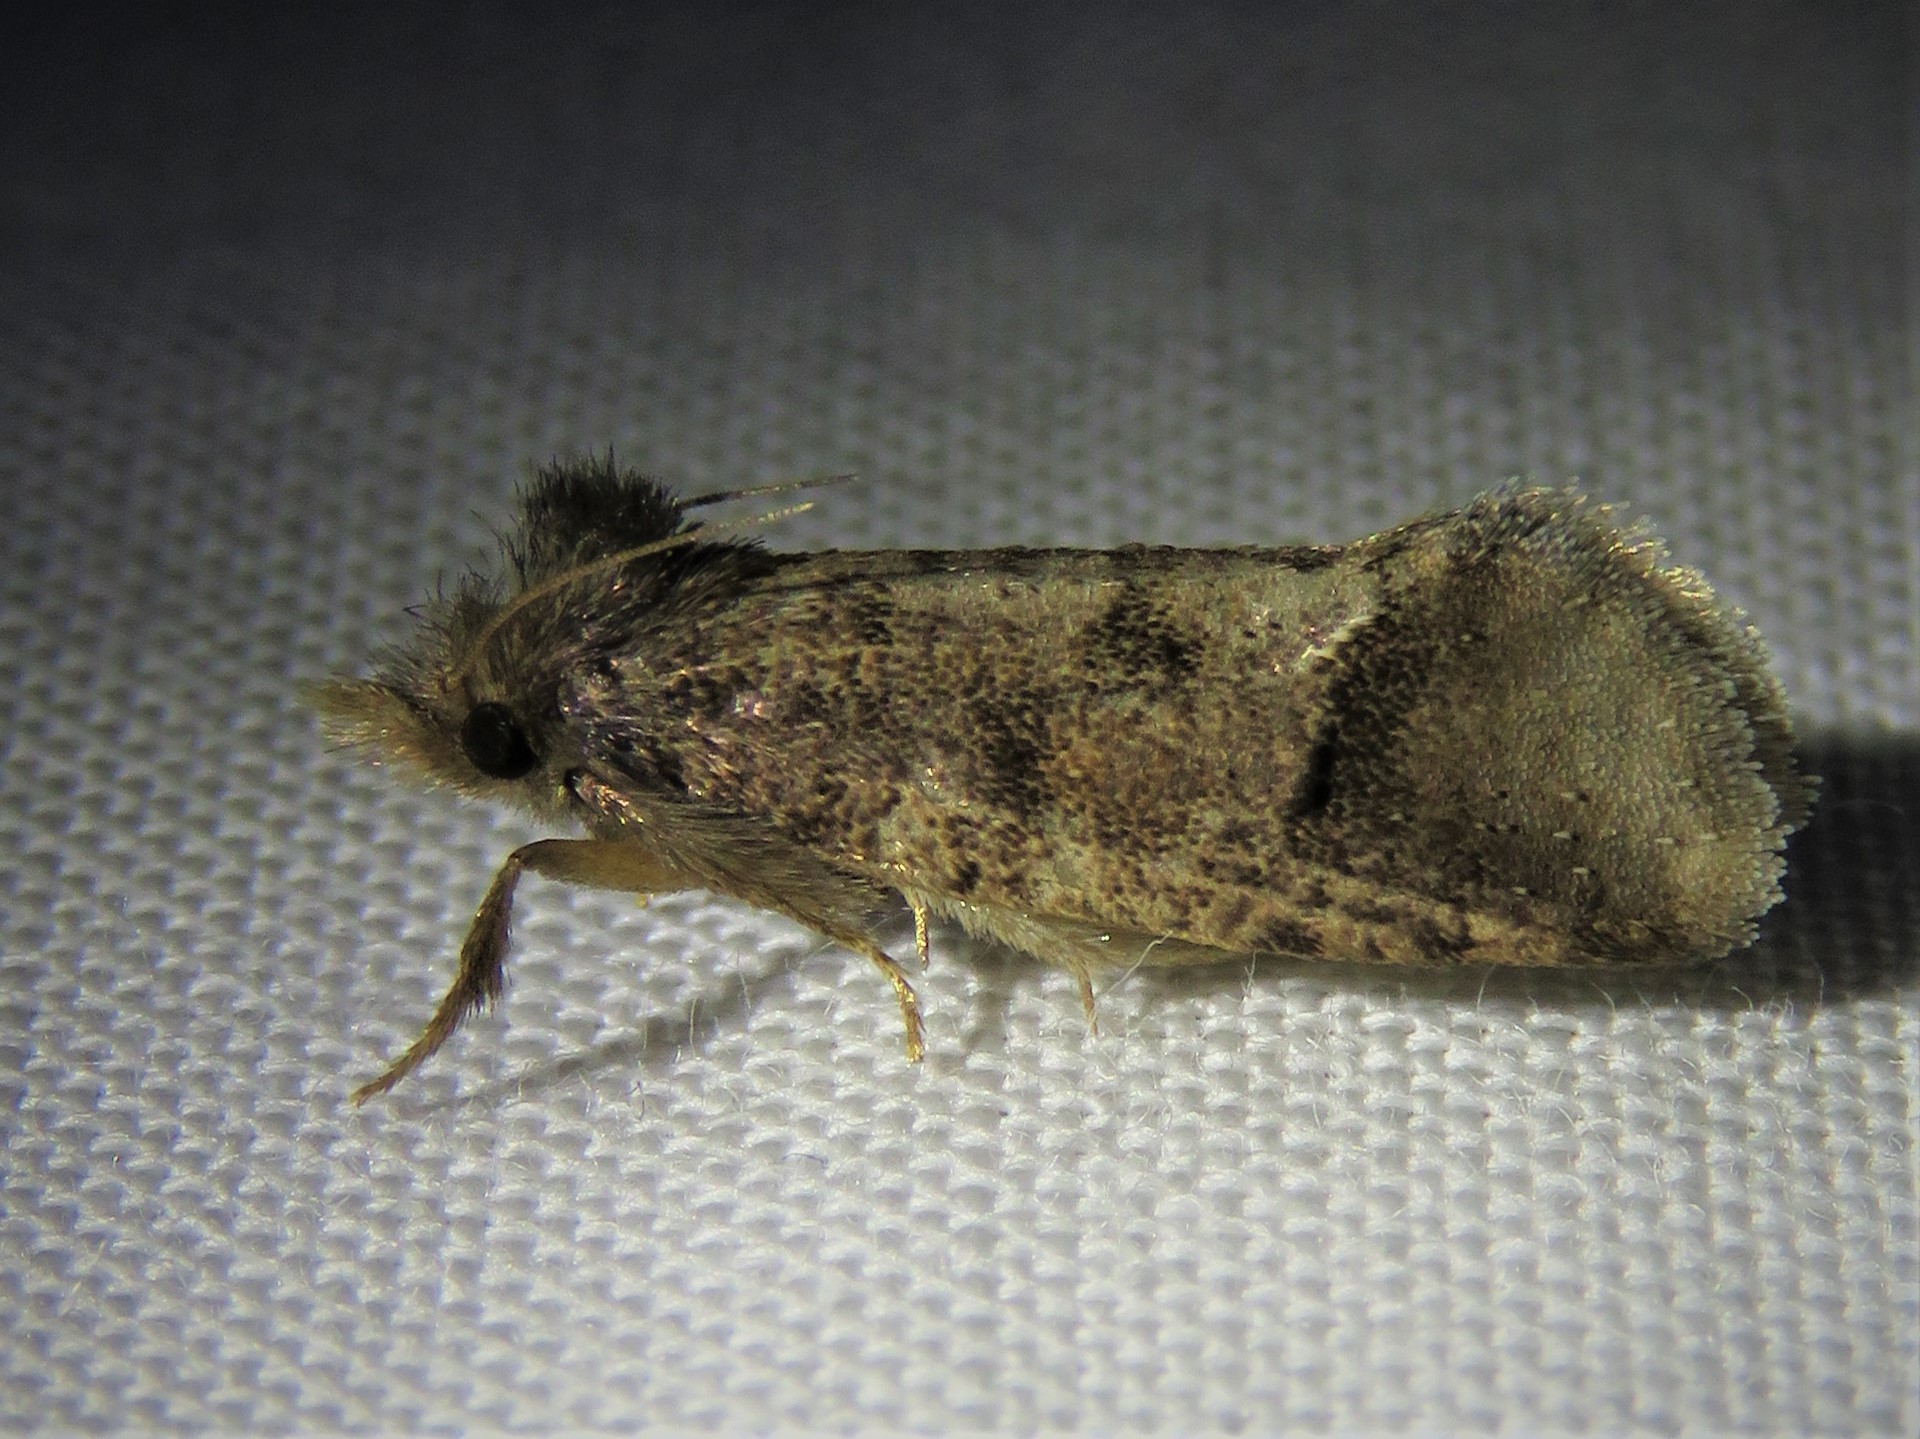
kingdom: Animalia
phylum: Arthropoda
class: Insecta
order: Lepidoptera
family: Tineidae
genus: Acrolophus
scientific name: Acrolophus texanella
